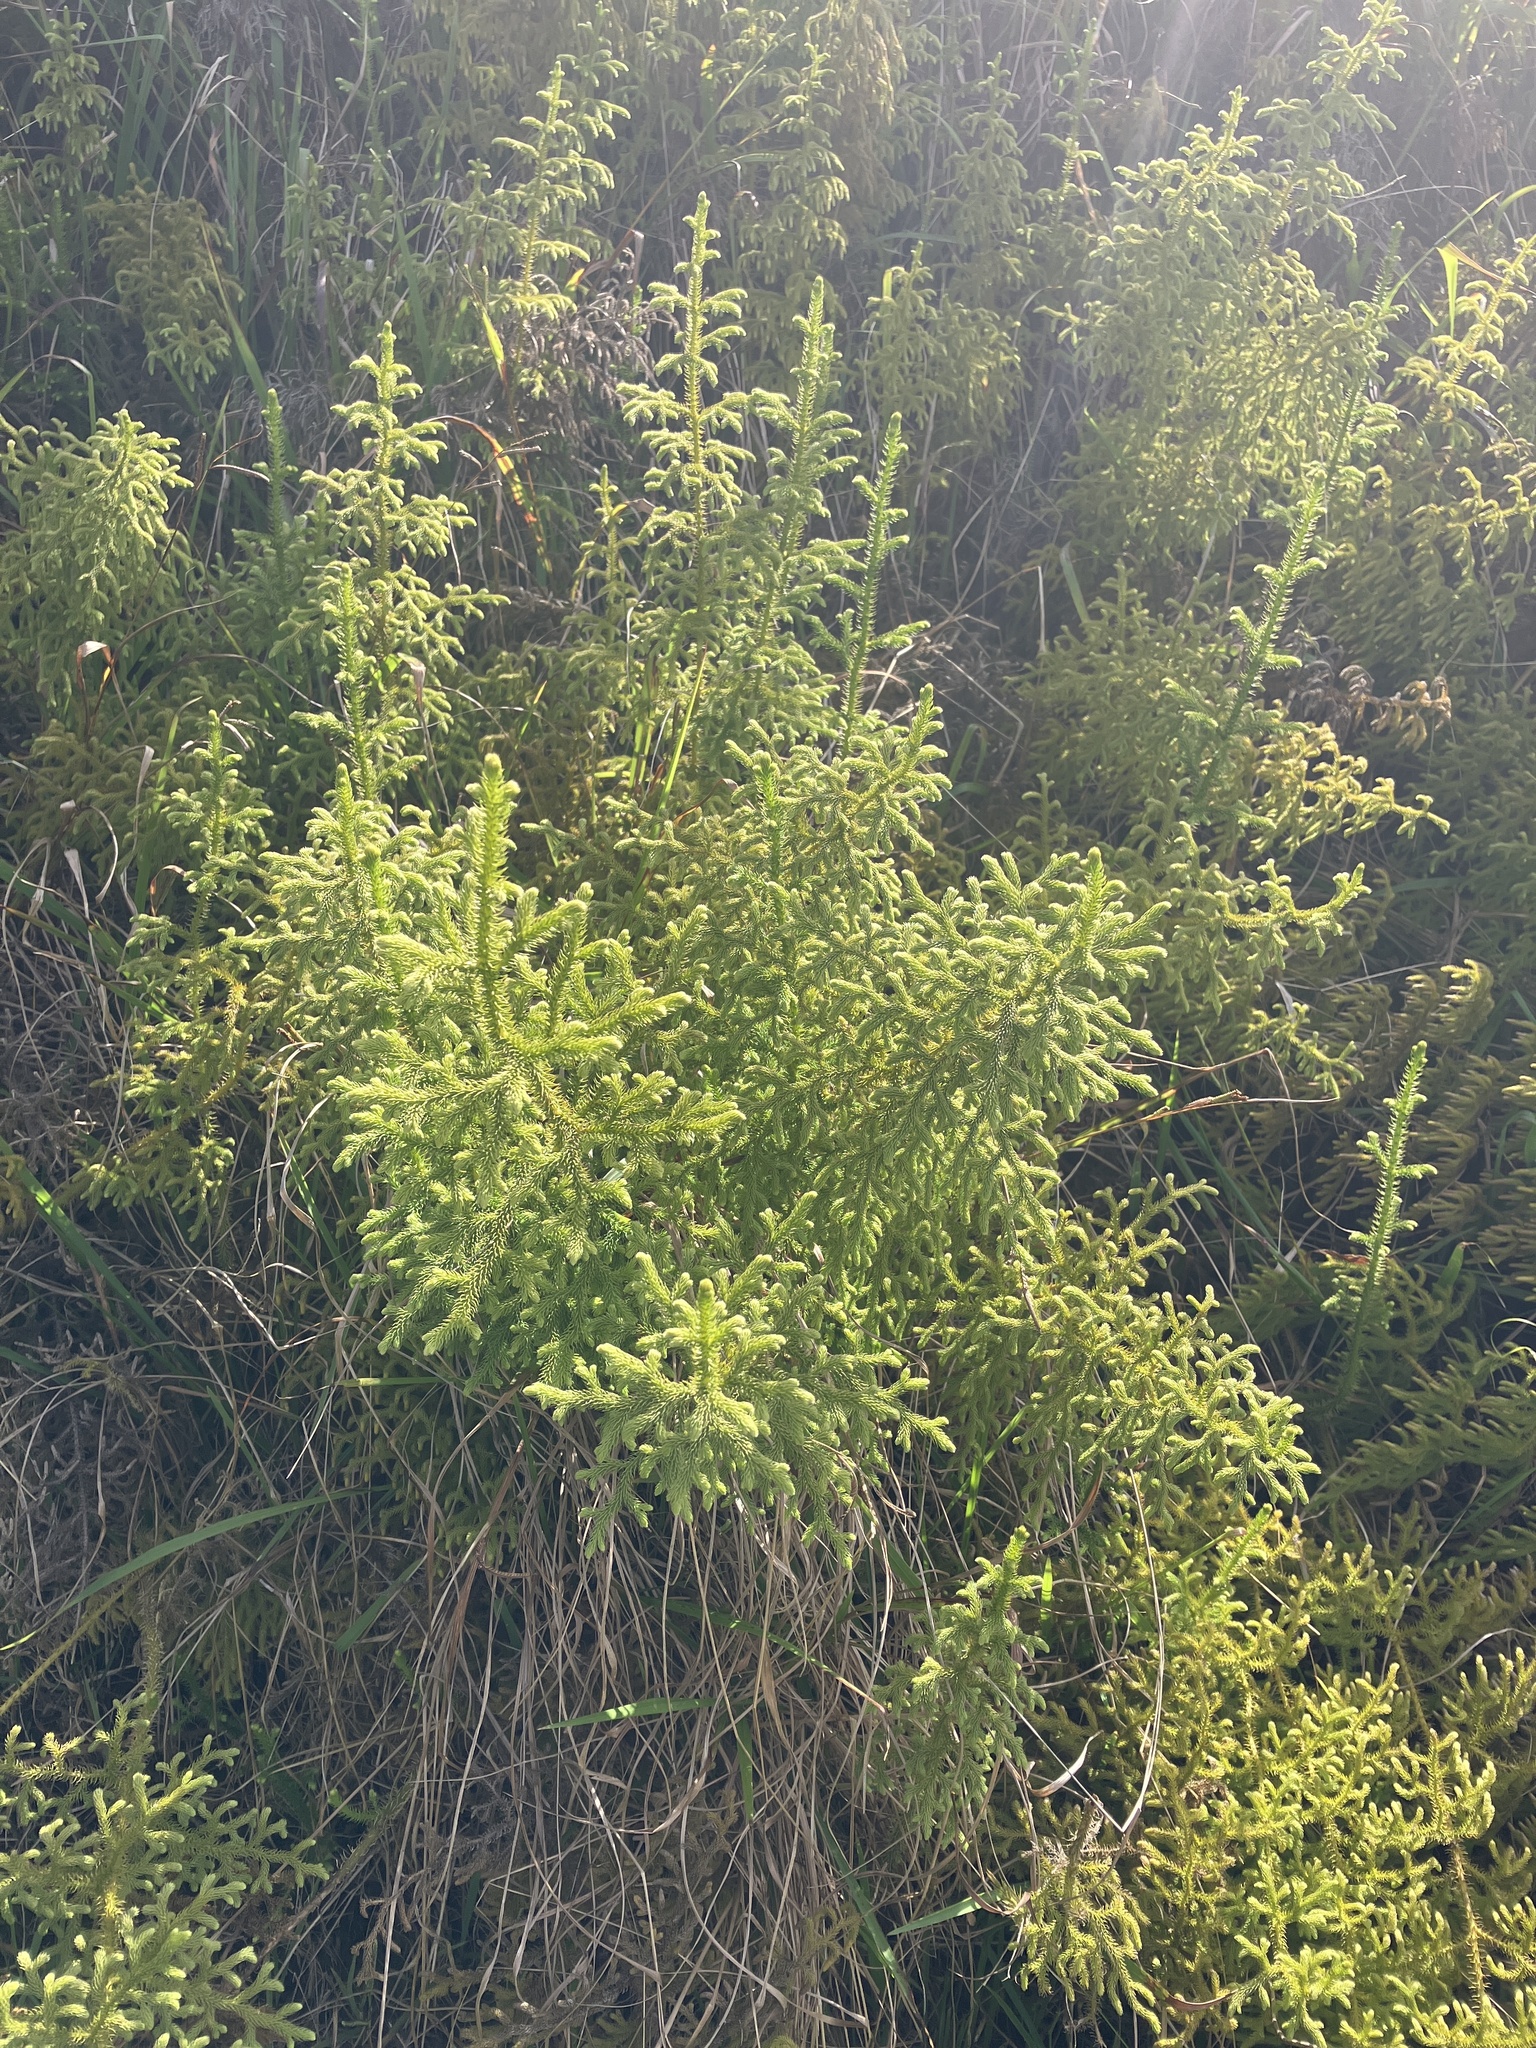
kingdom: Plantae
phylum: Tracheophyta
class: Lycopodiopsida
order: Lycopodiales
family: Lycopodiaceae
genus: Palhinhaea
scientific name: Palhinhaea cernua
